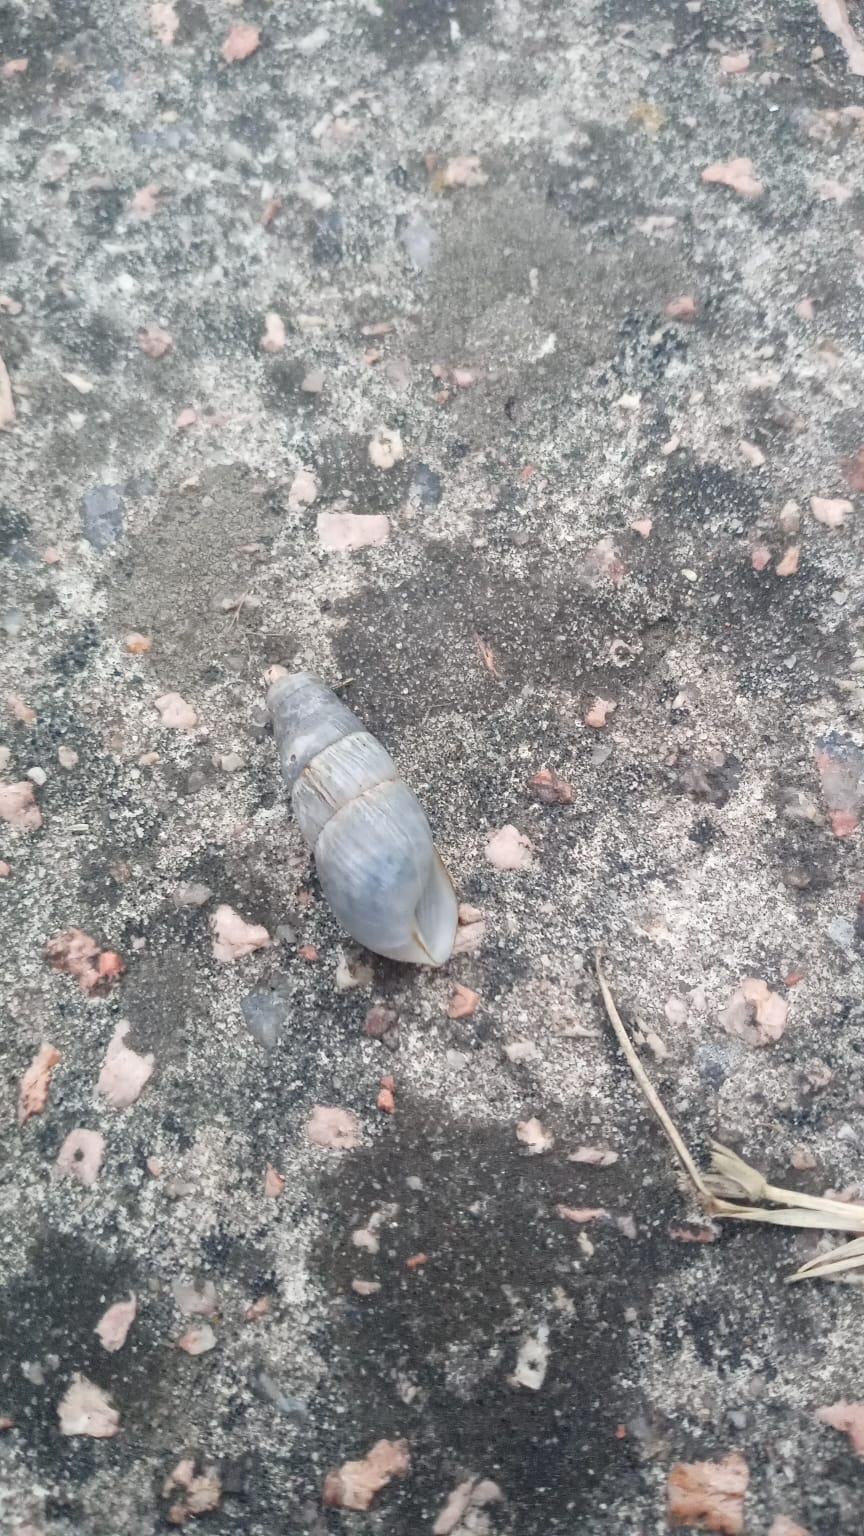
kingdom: Animalia
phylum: Mollusca
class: Gastropoda
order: Stylommatophora
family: Achatinidae
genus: Rumina
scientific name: Rumina decollata
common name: Decollate snail
